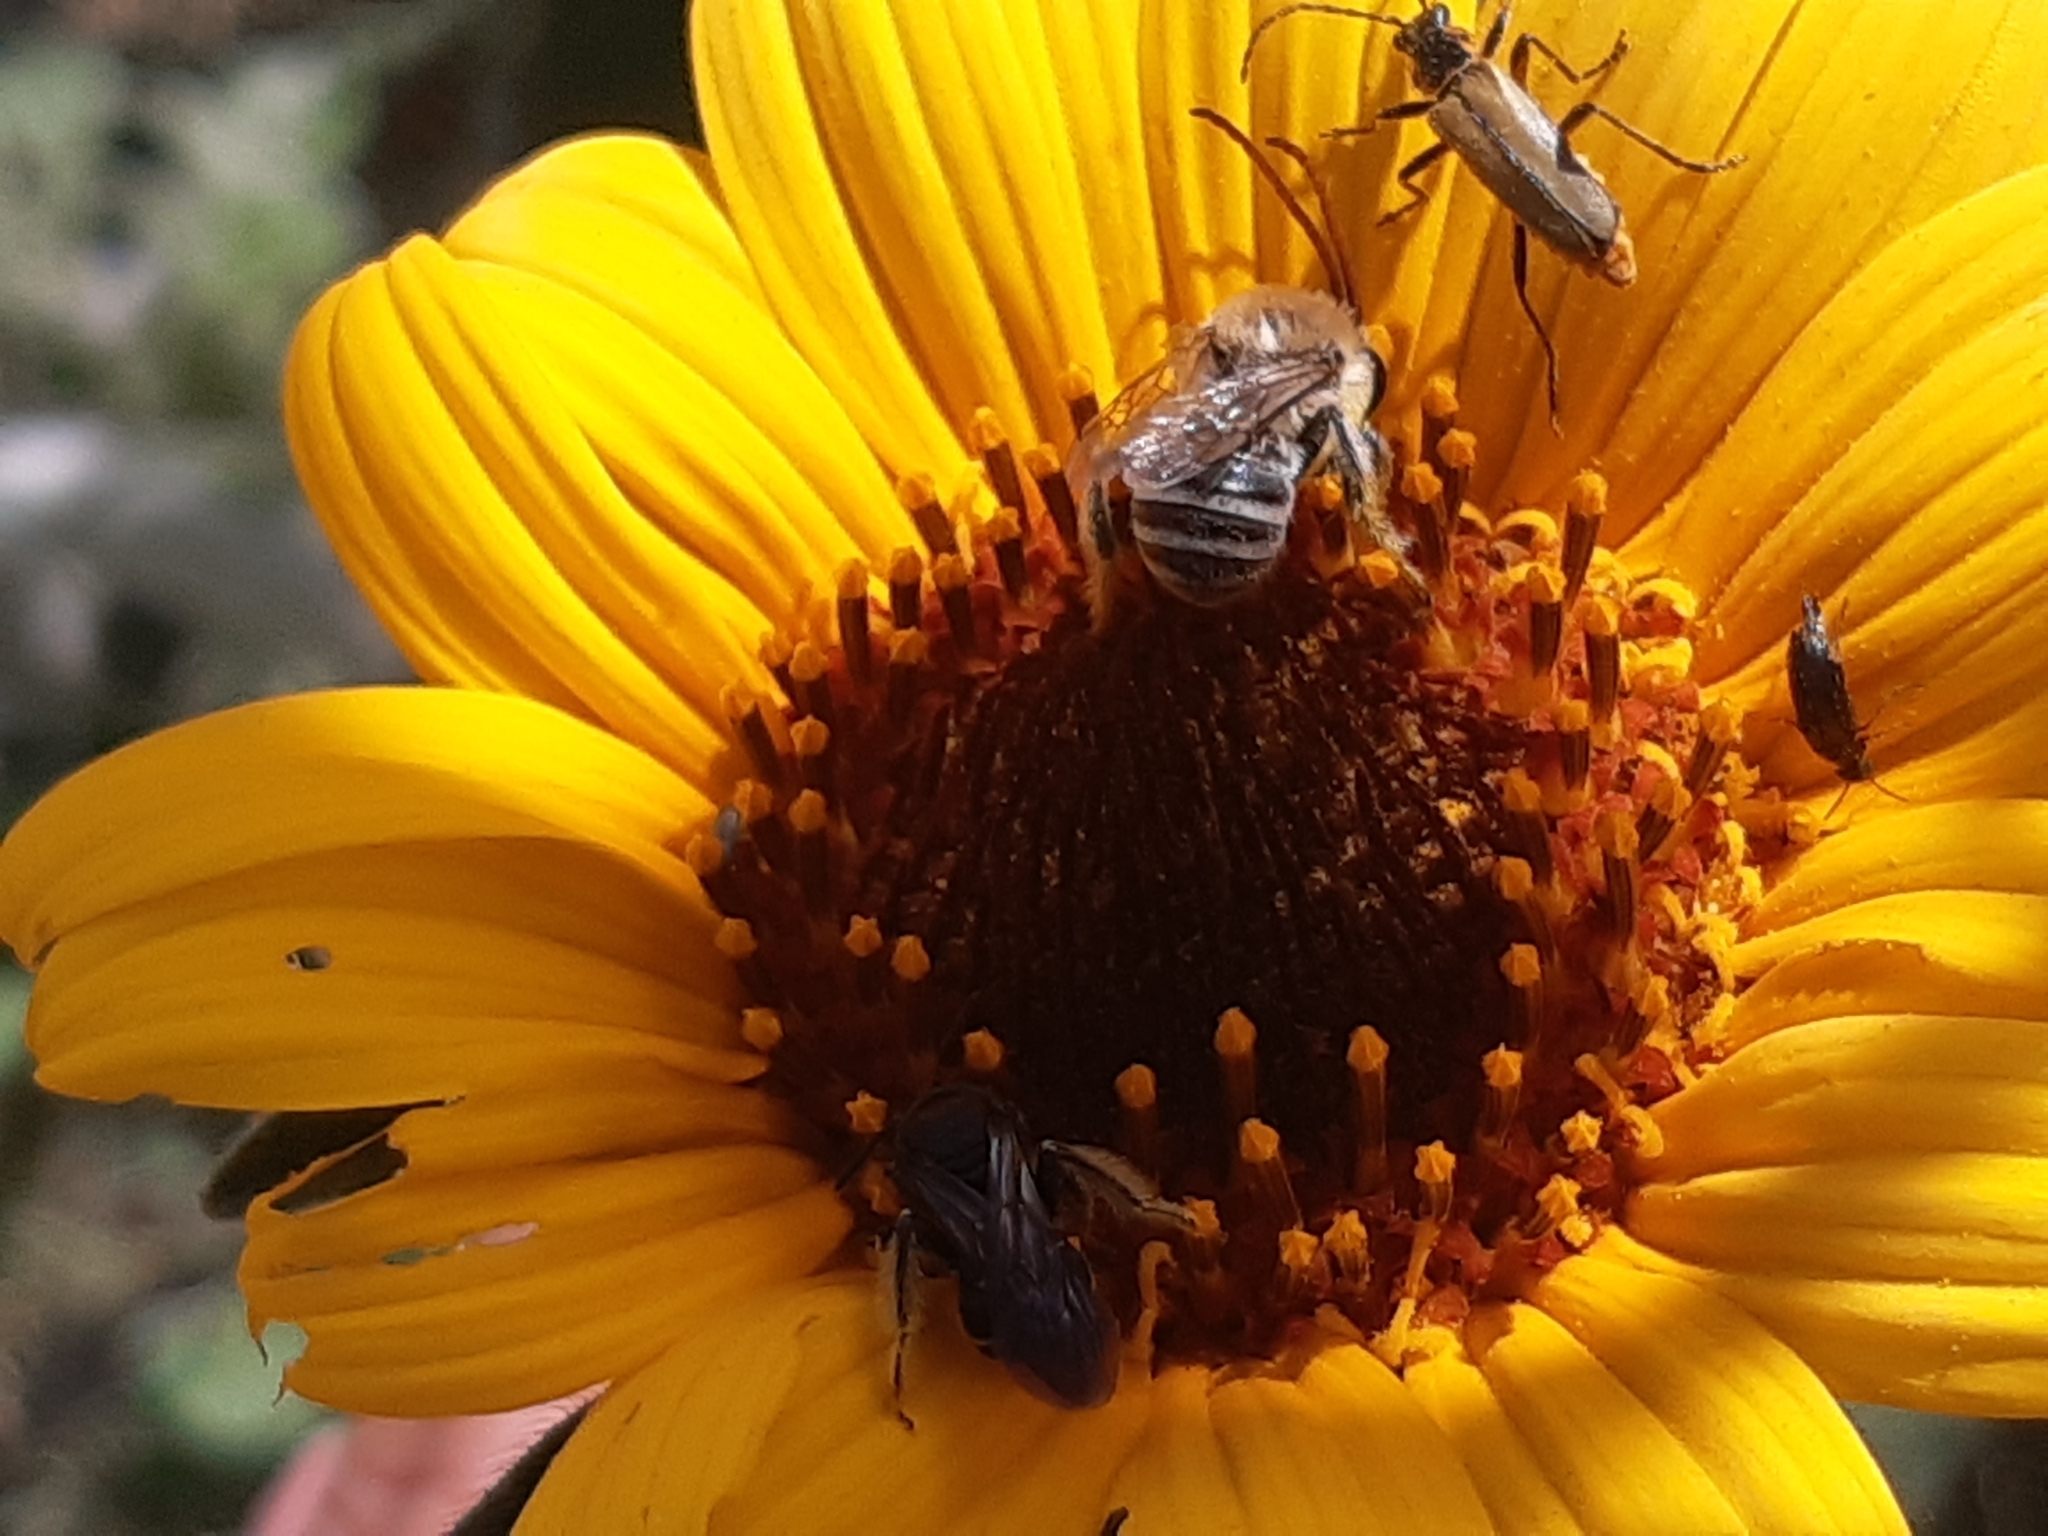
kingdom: Animalia
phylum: Arthropoda
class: Insecta
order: Coleoptera
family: Cantharidae
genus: Chauliognathus
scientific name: Chauliognathus
